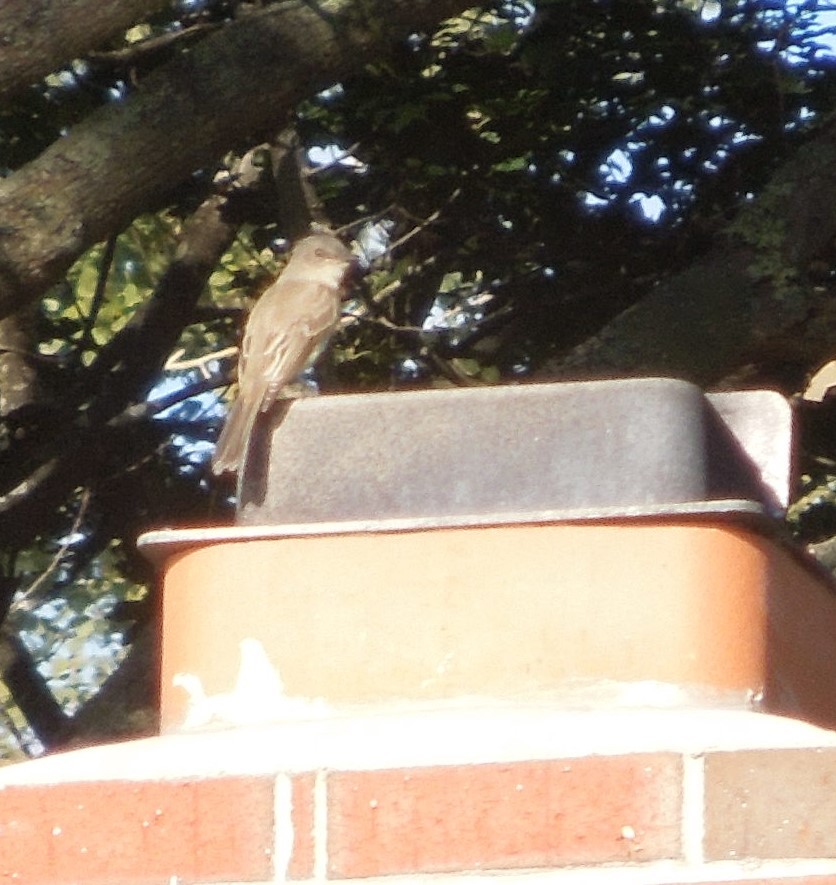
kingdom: Animalia
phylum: Chordata
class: Aves
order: Passeriformes
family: Tyrannidae
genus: Sayornis
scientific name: Sayornis phoebe
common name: Eastern phoebe
